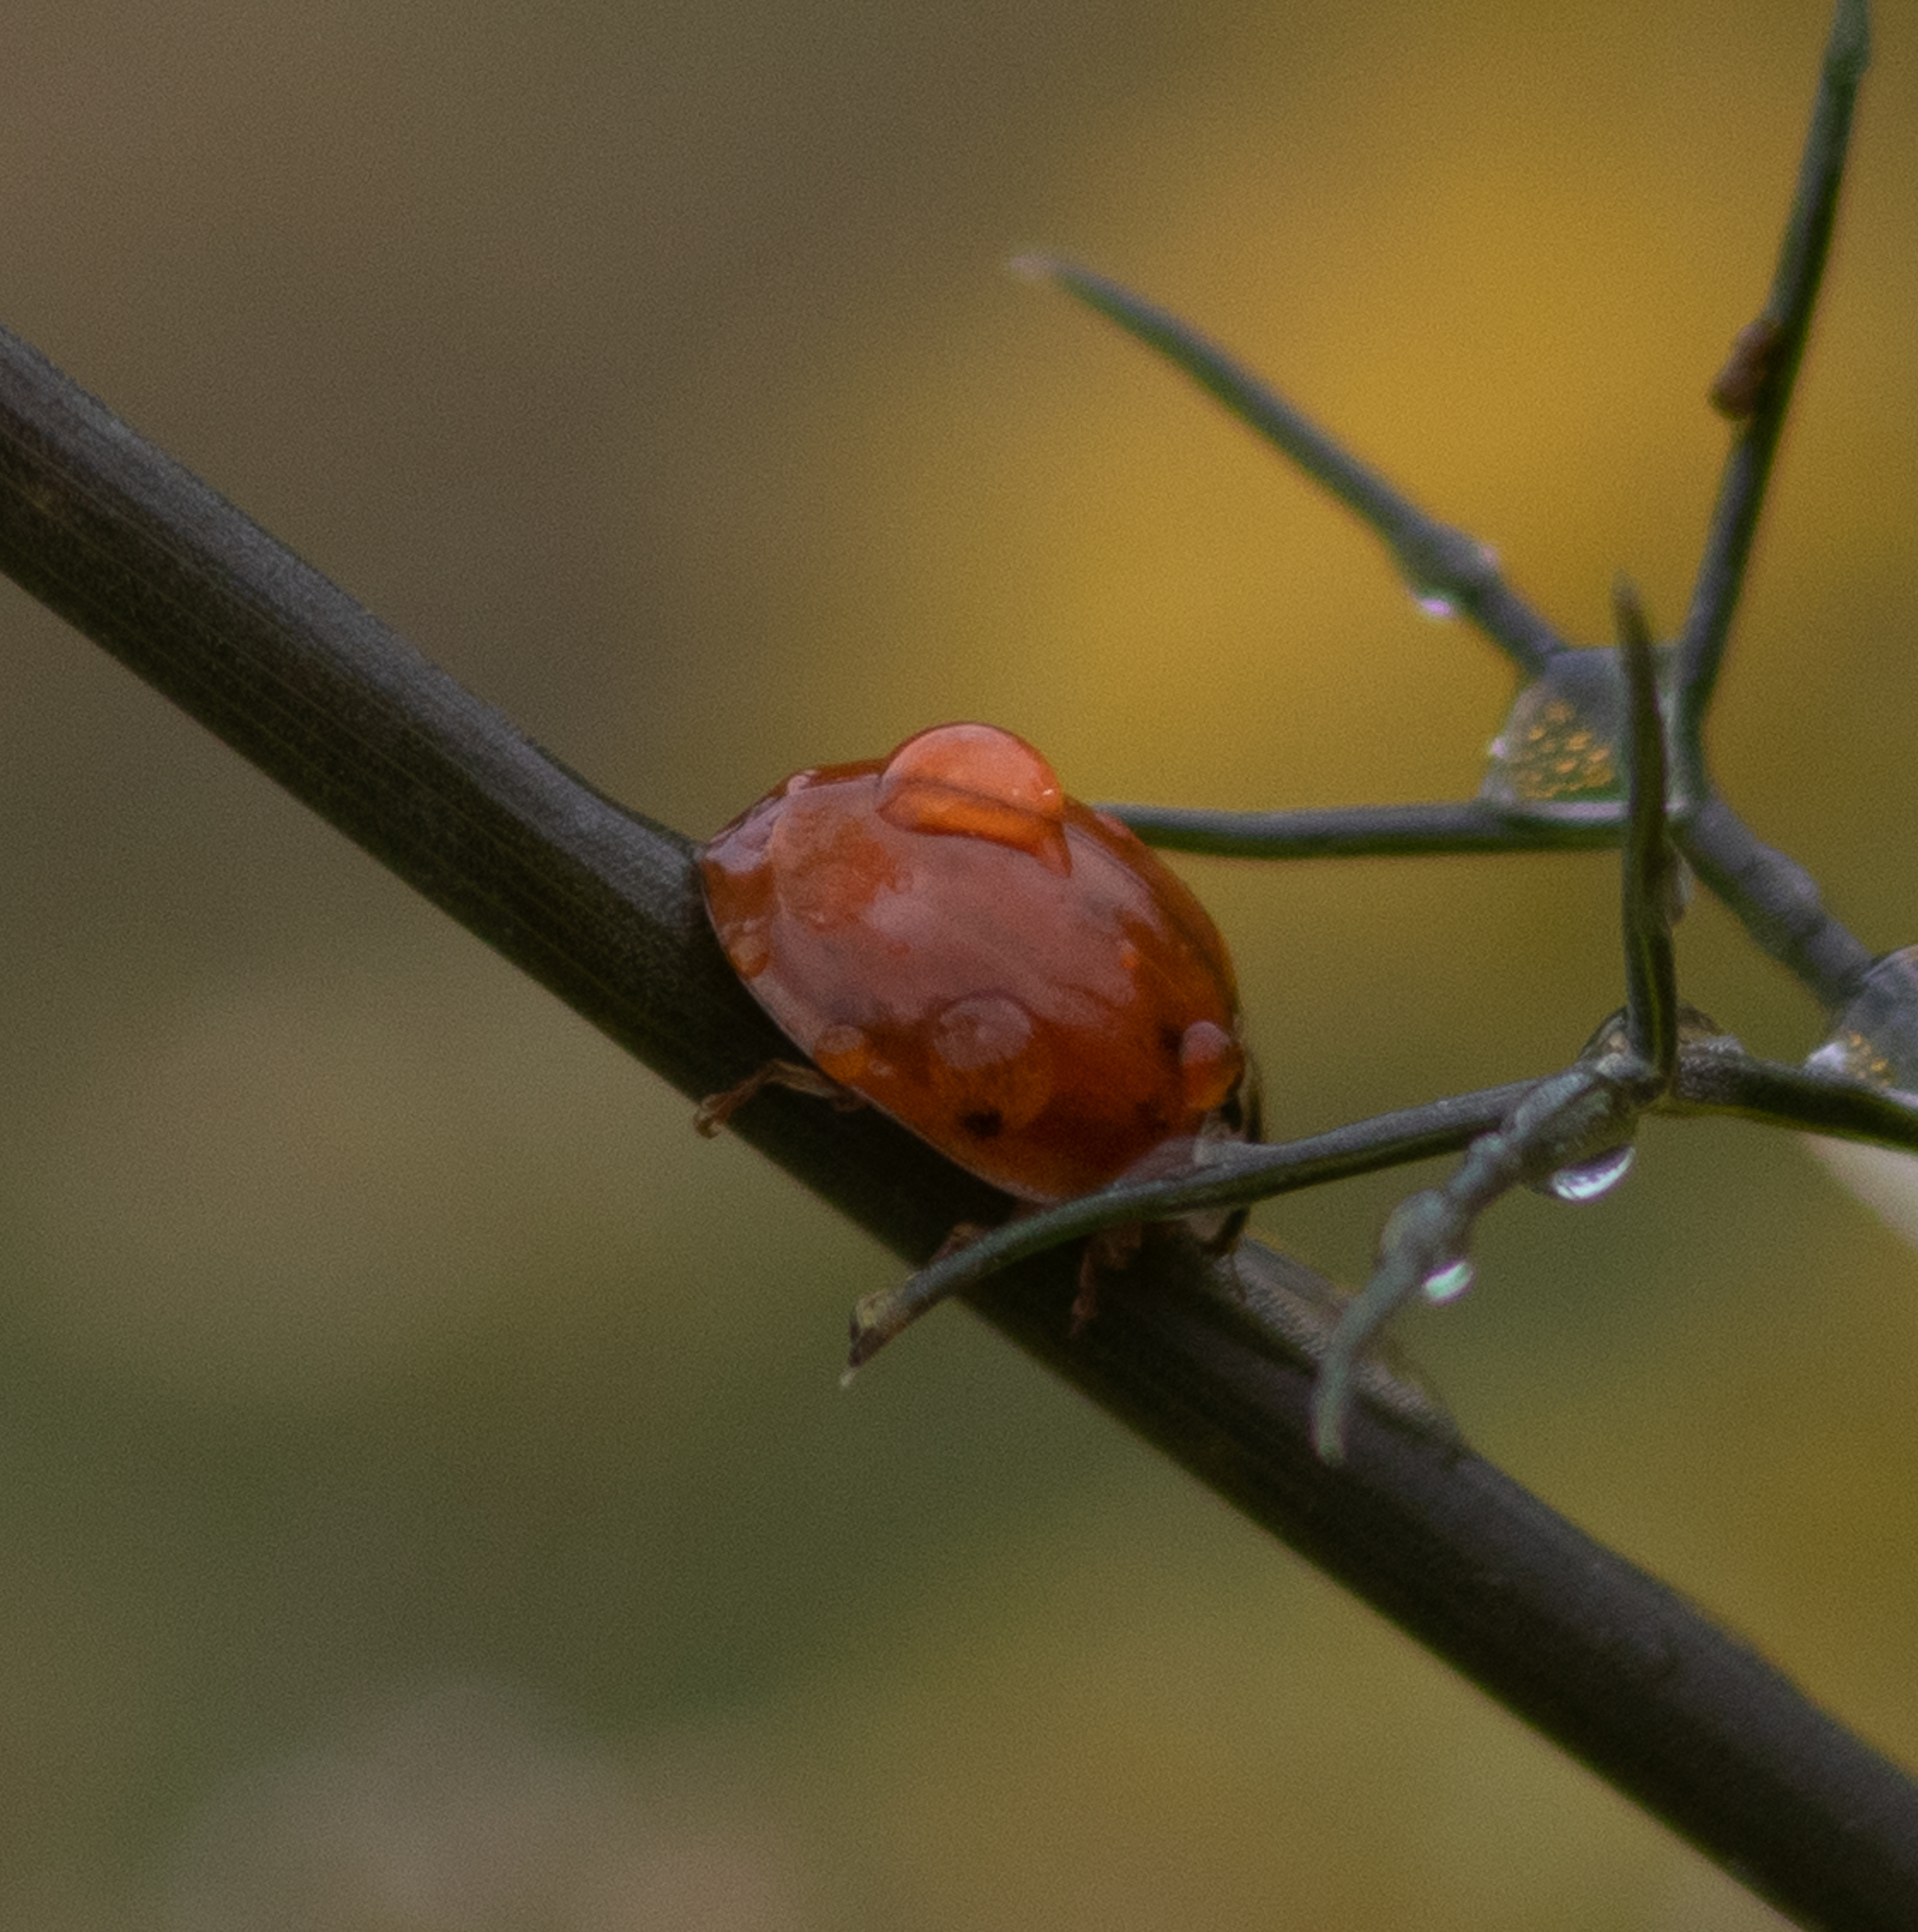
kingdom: Animalia
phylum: Arthropoda
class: Insecta
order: Coleoptera
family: Coccinellidae
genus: Harmonia
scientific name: Harmonia axyridis
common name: Harlequin ladybird
